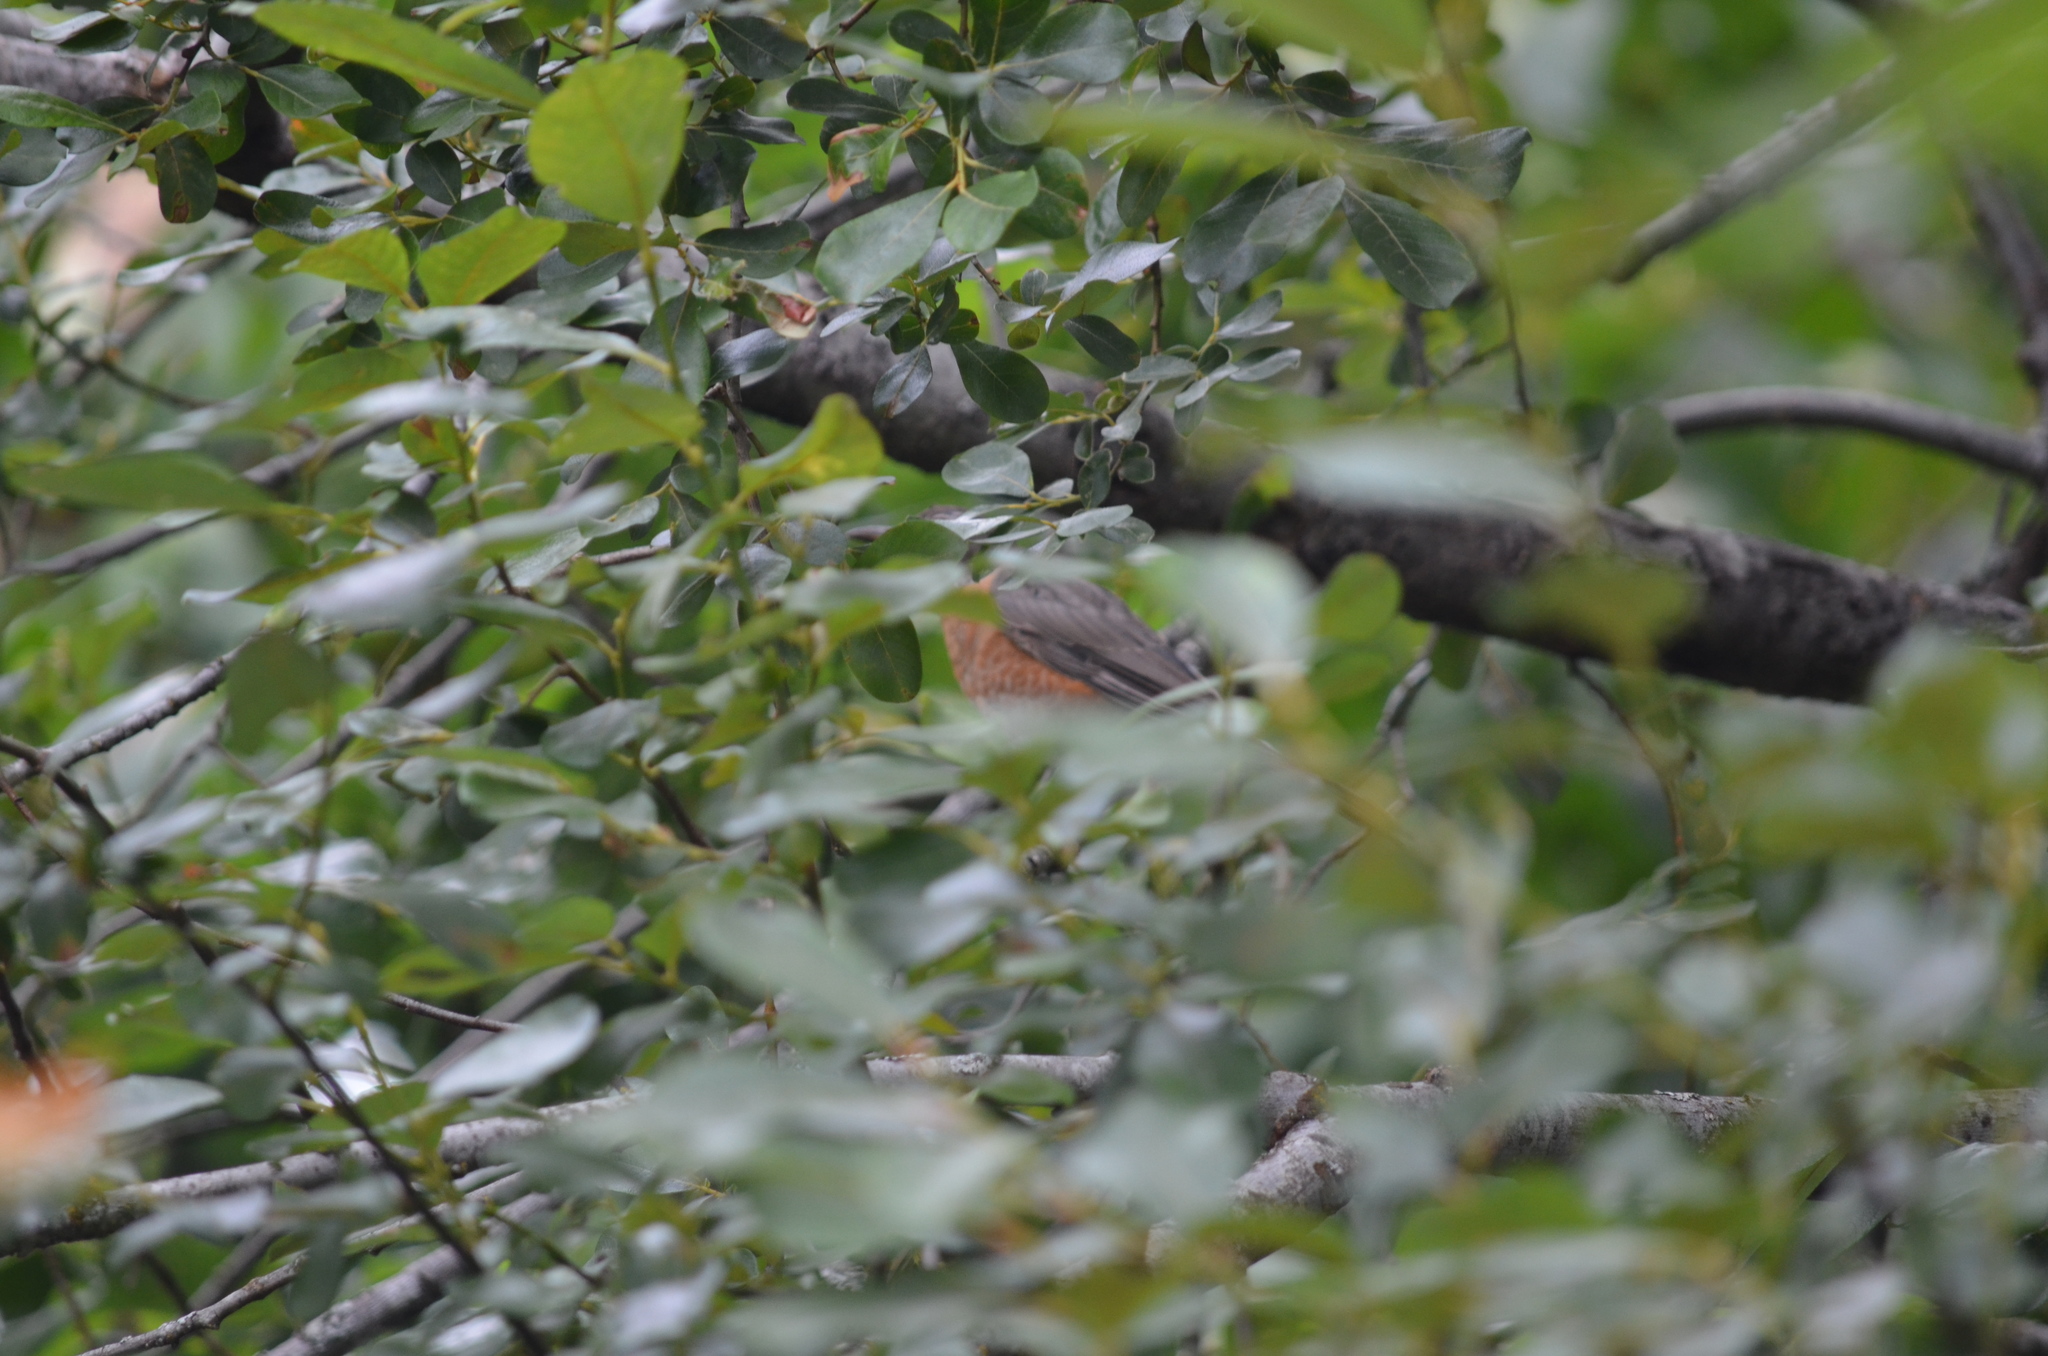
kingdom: Animalia
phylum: Chordata
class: Aves
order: Passeriformes
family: Turdidae
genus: Turdus
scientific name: Turdus migratorius
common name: American robin
